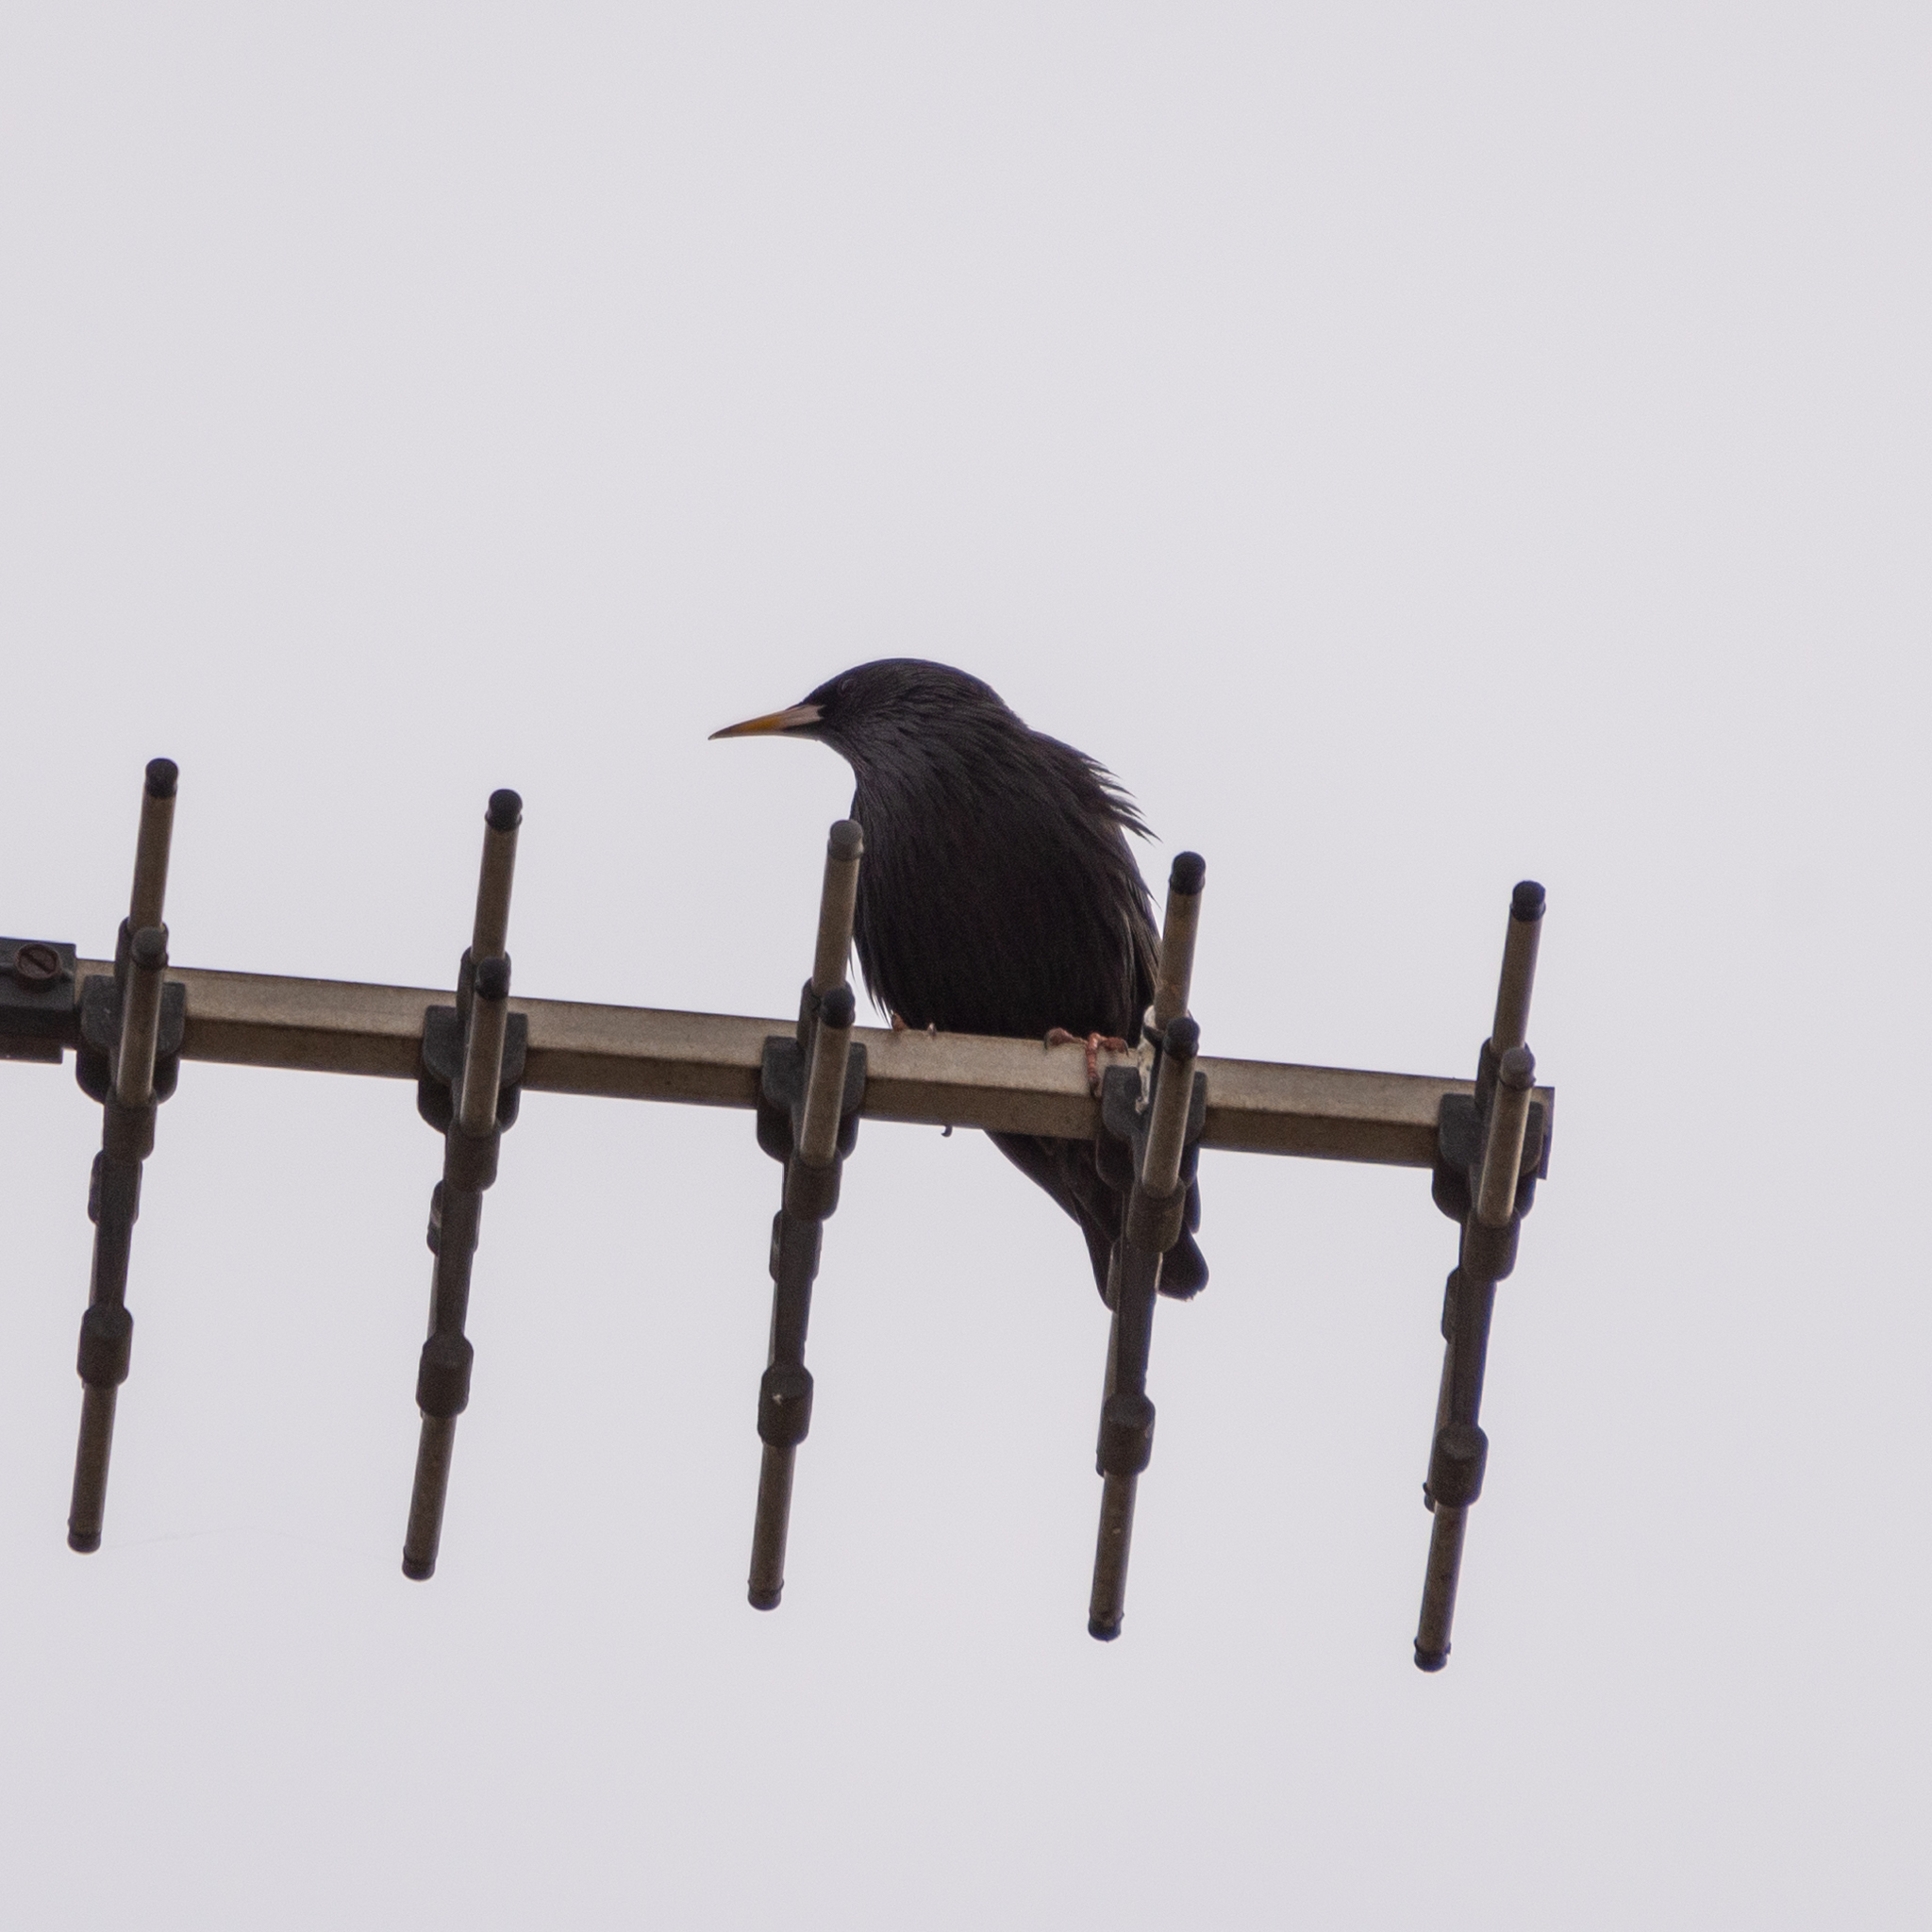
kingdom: Animalia
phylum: Chordata
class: Aves
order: Passeriformes
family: Sturnidae
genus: Sturnus
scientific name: Sturnus unicolor
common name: Spotless starling
